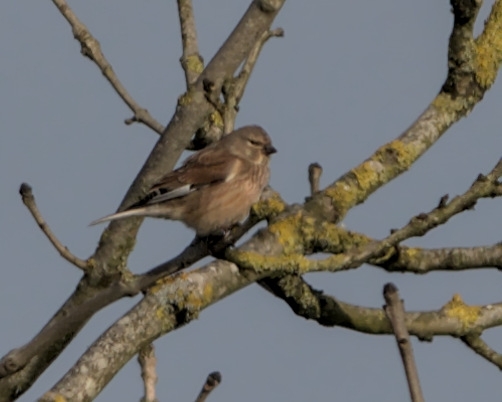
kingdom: Animalia
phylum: Chordata
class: Aves
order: Passeriformes
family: Fringillidae
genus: Linaria
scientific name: Linaria cannabina
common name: Common linnet
